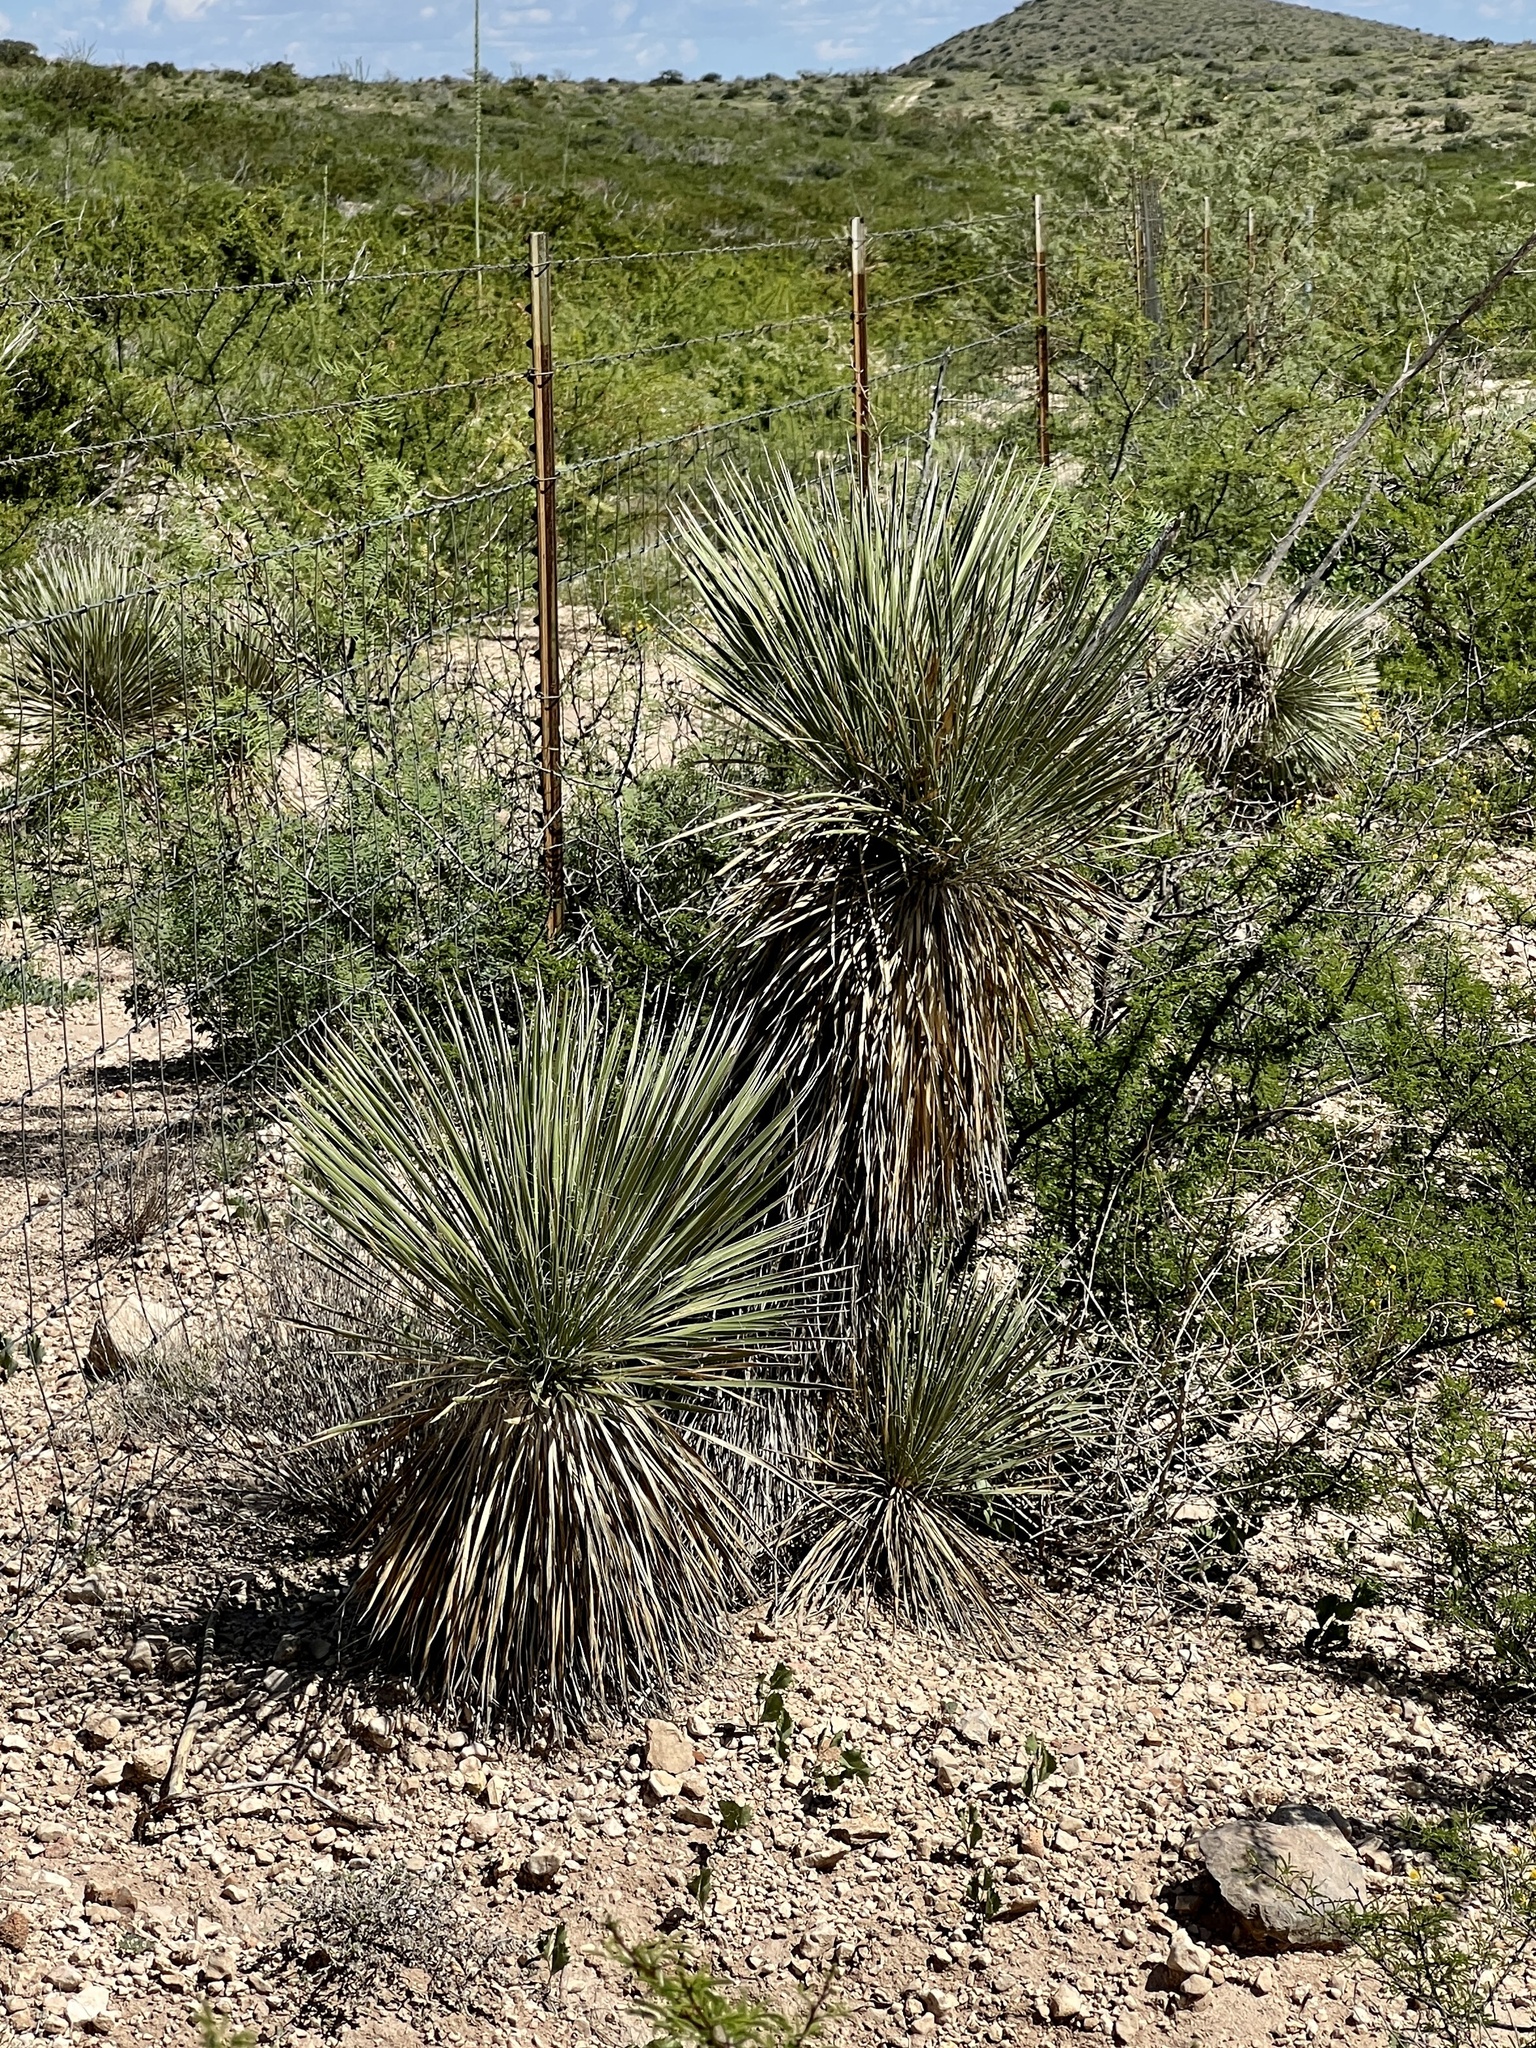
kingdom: Plantae
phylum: Tracheophyta
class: Liliopsida
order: Asparagales
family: Asparagaceae
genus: Yucca
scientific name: Yucca elata
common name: Palmella
